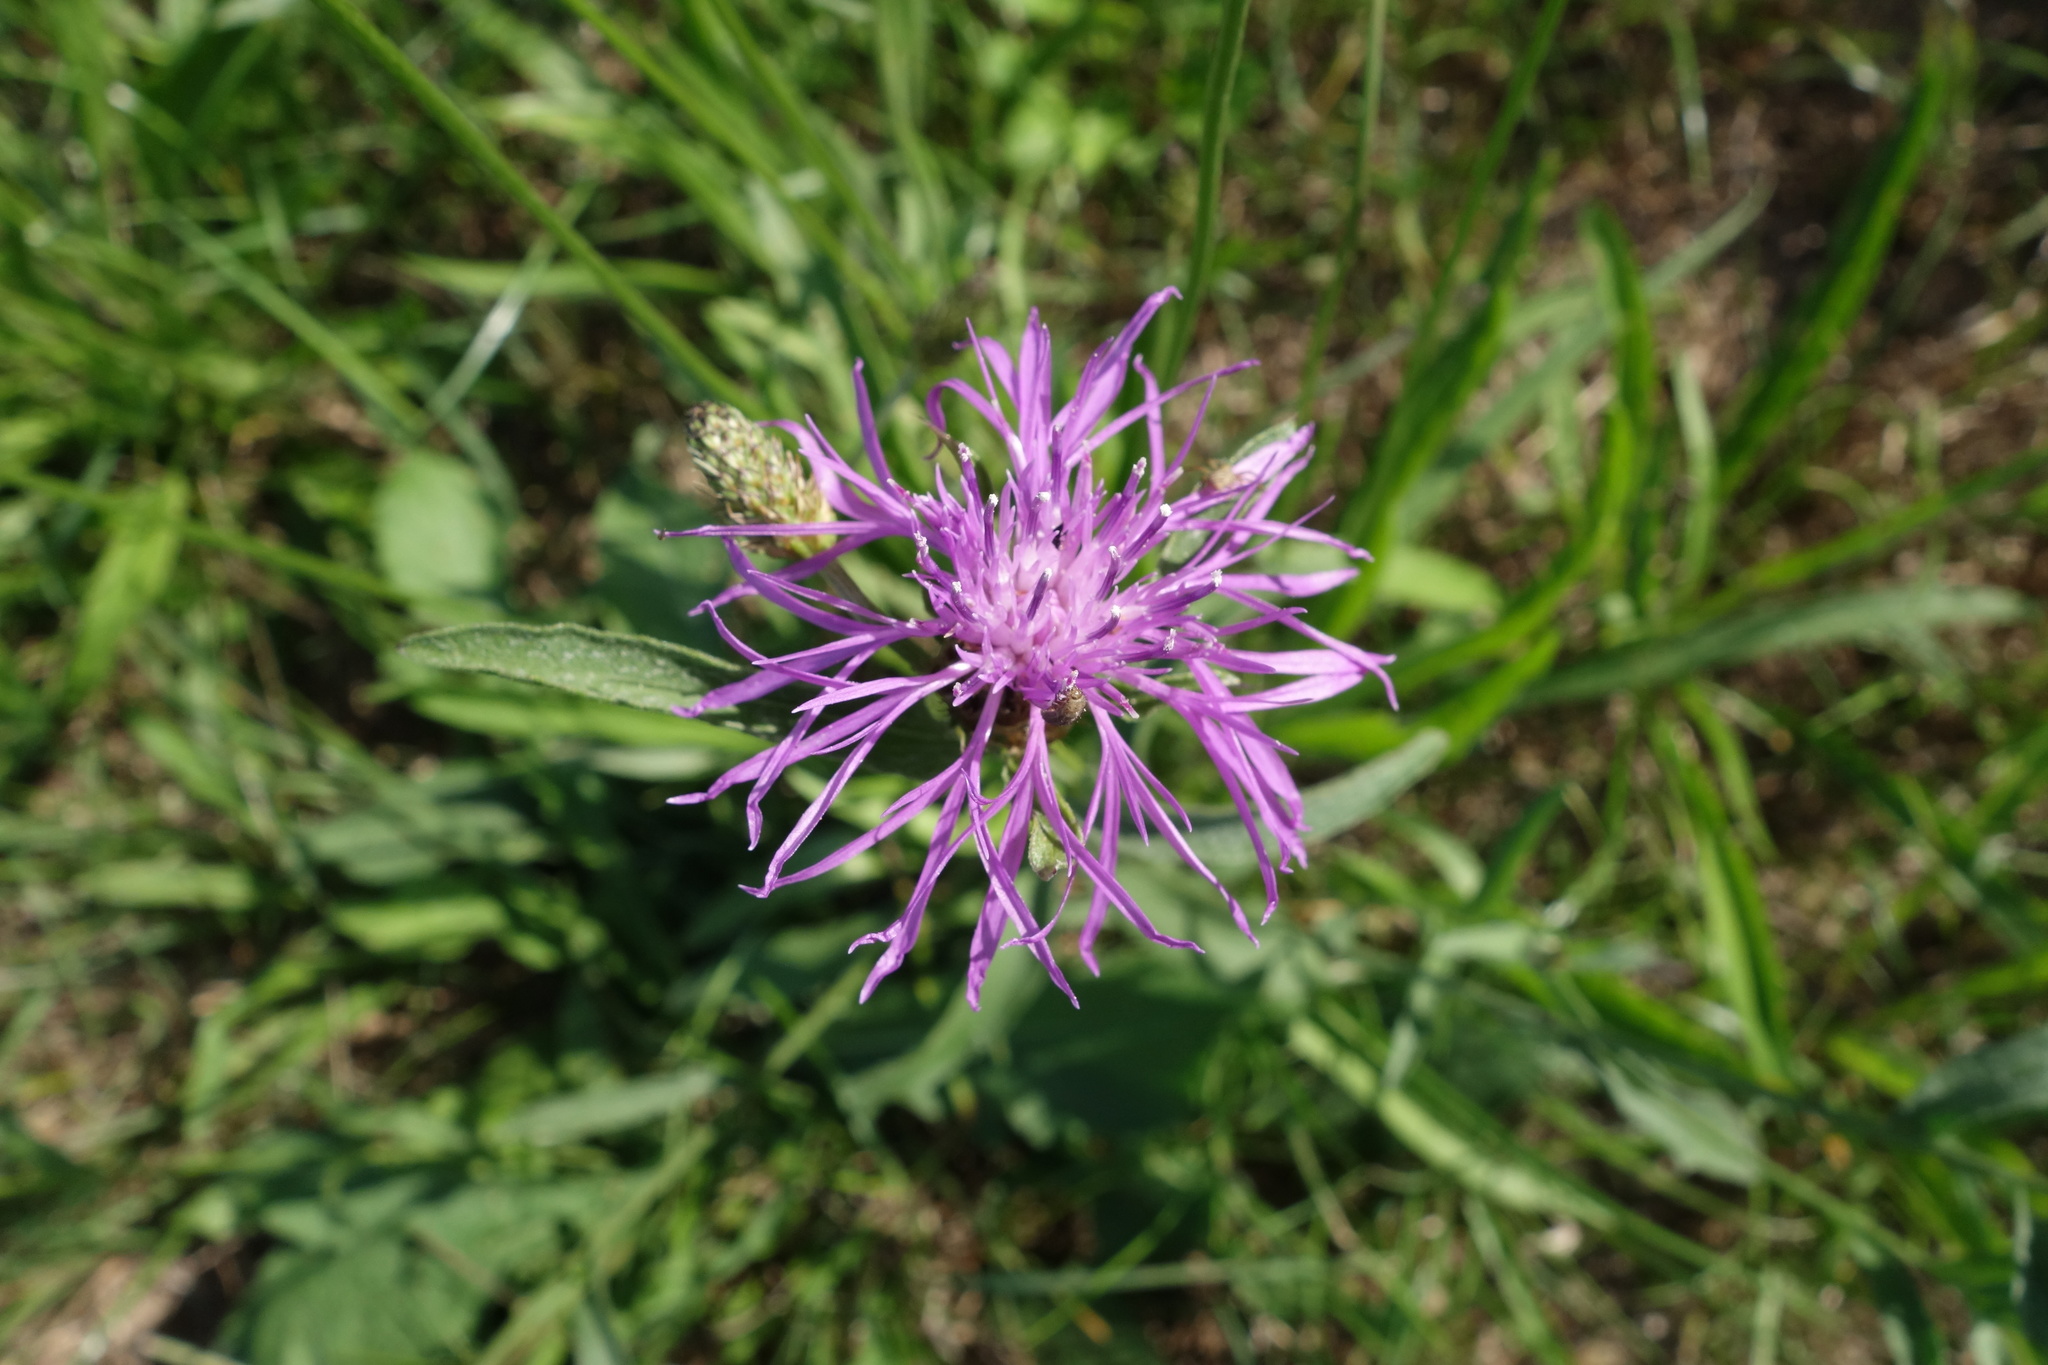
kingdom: Plantae
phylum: Tracheophyta
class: Magnoliopsida
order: Asterales
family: Asteraceae
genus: Centaurea
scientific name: Centaurea jacea
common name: Brown knapweed
